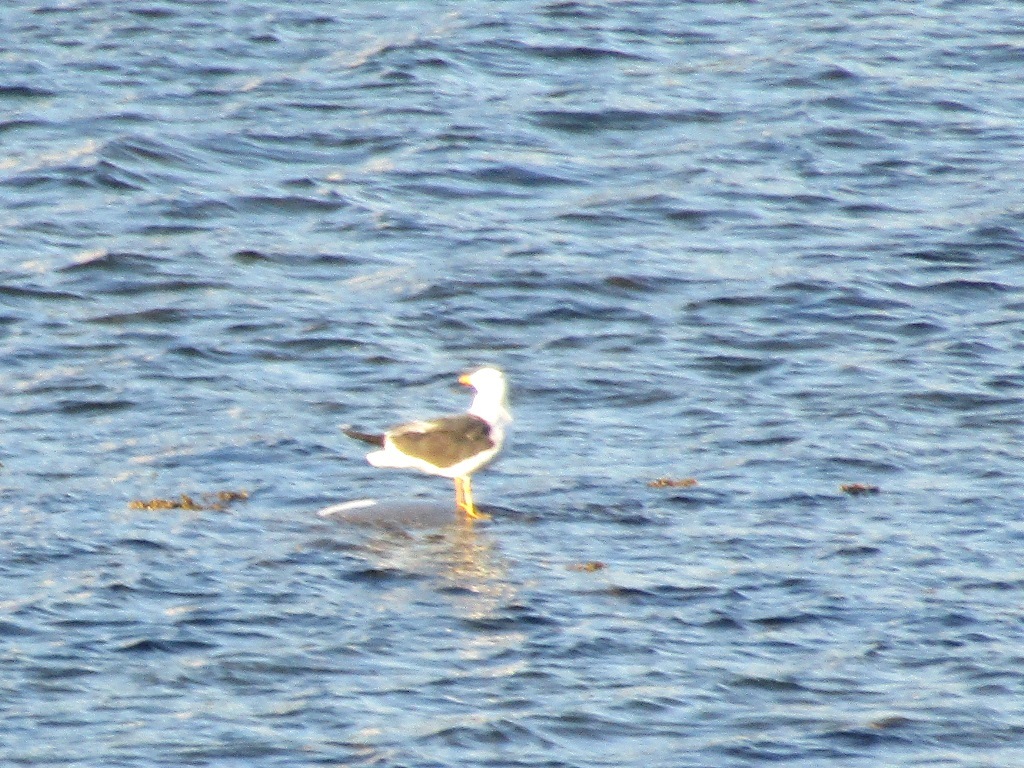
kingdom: Animalia
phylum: Chordata
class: Aves
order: Charadriiformes
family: Laridae
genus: Larus
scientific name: Larus fuscus
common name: Lesser black-backed gull
